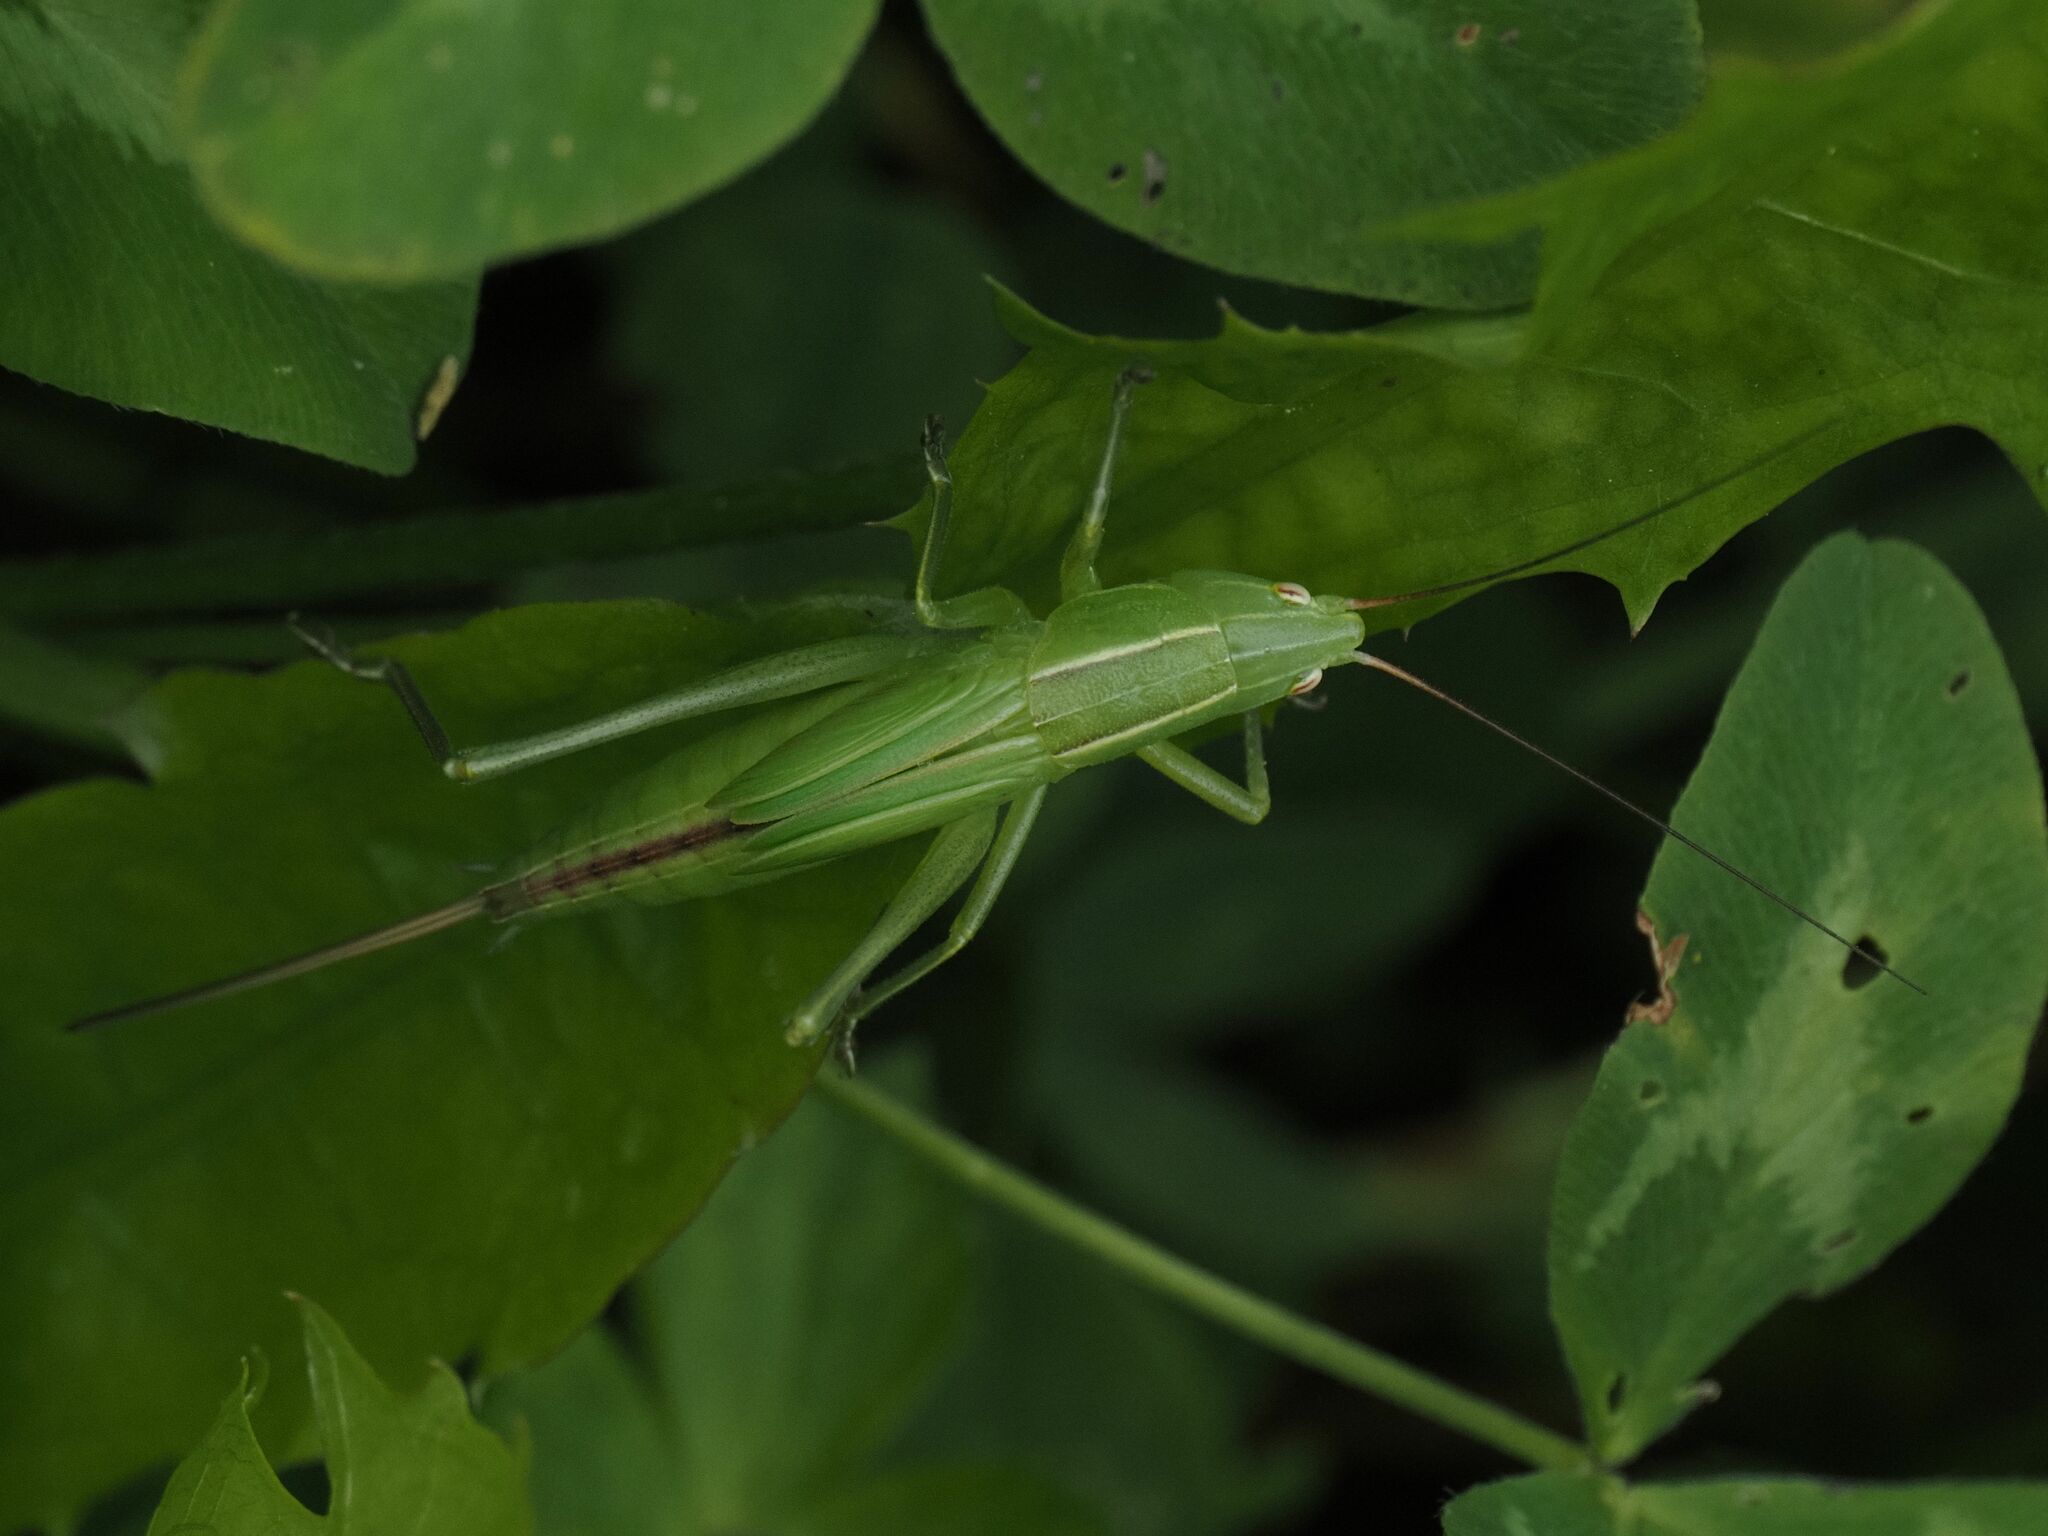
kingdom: Animalia
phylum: Arthropoda
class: Insecta
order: Orthoptera
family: Tettigoniidae
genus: Ruspolia
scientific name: Ruspolia nitidula
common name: Large conehead
